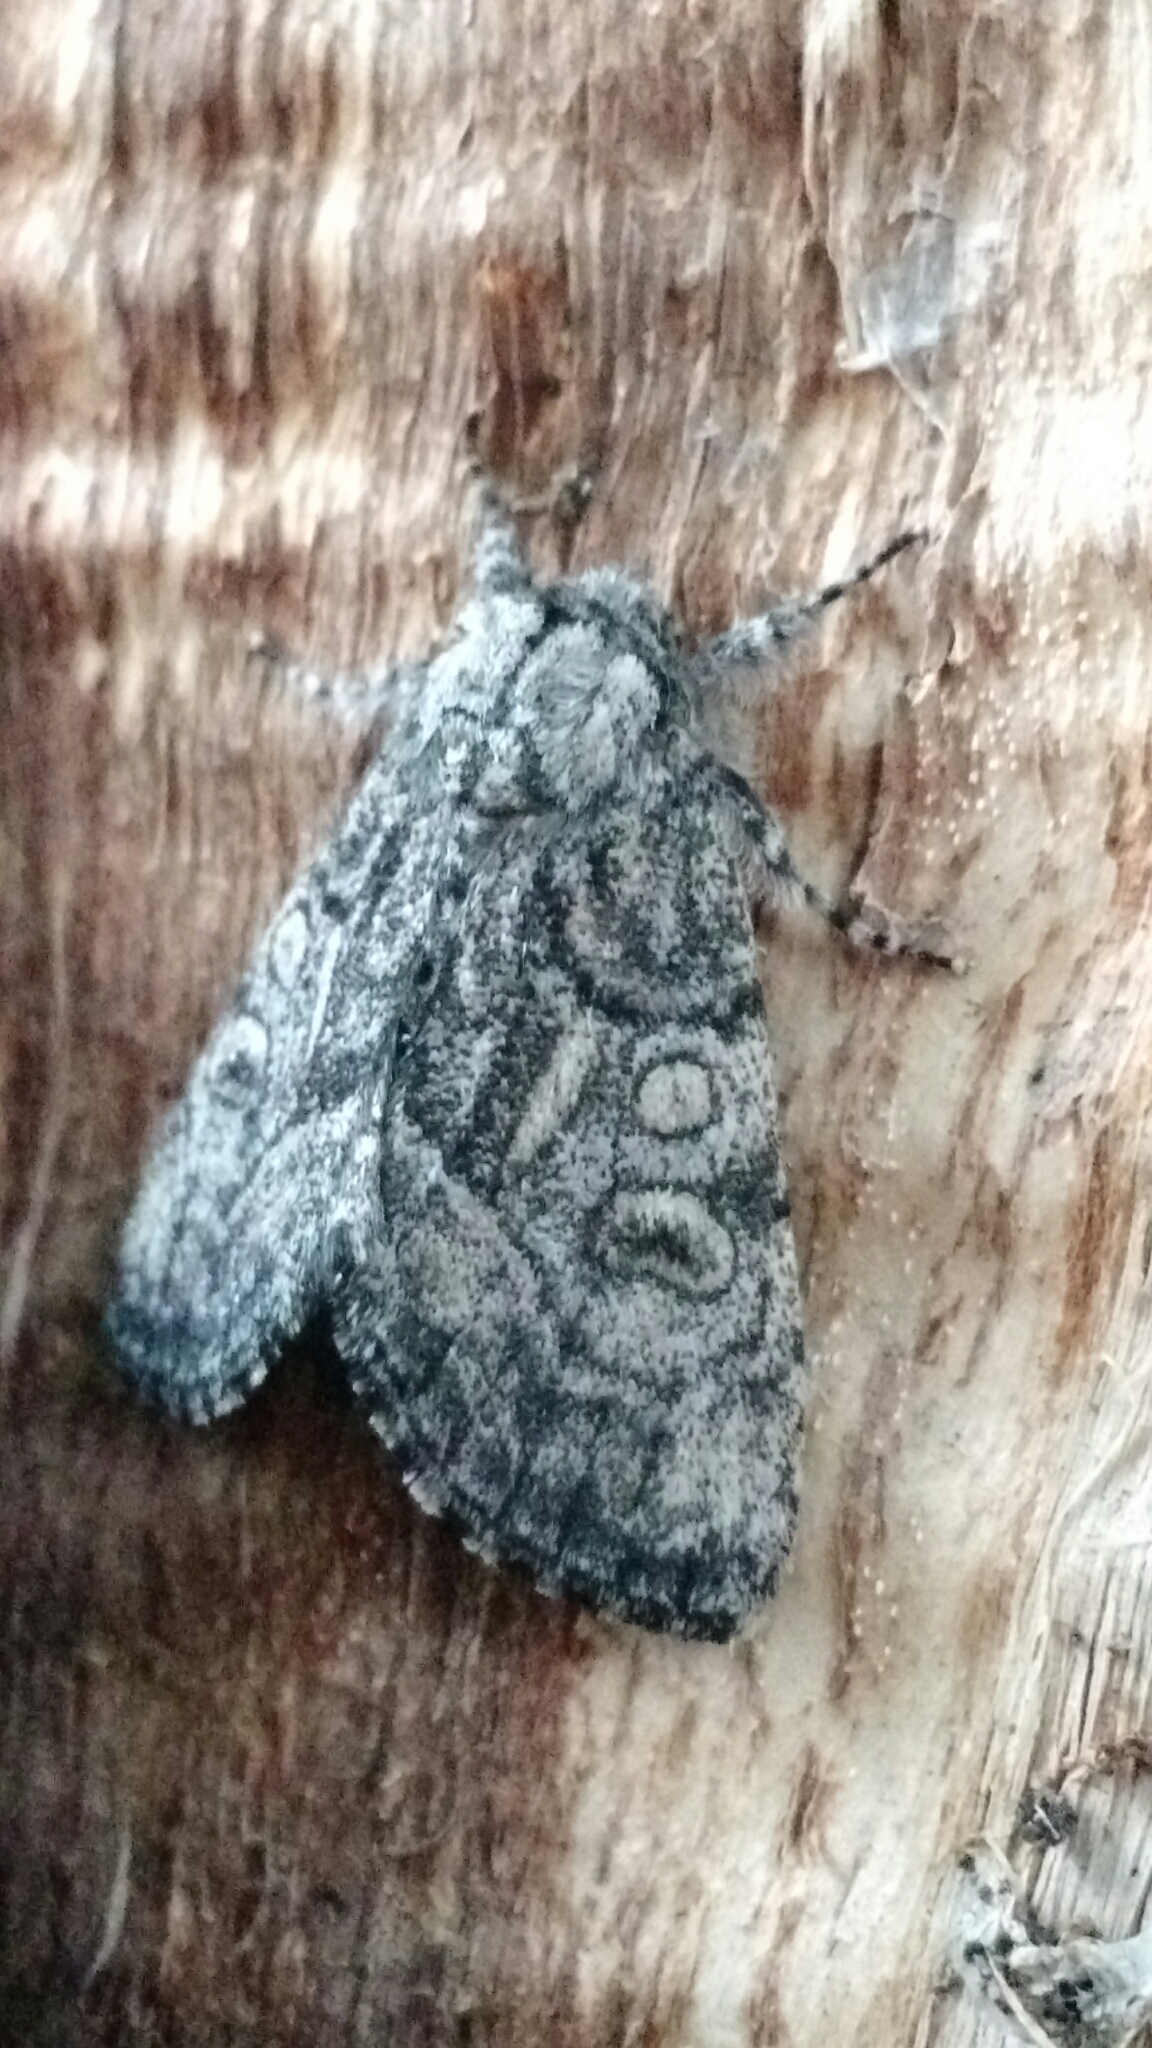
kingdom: Animalia
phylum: Arthropoda
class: Insecta
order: Lepidoptera
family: Noctuidae
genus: Raphia
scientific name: Raphia frater
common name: Brother
